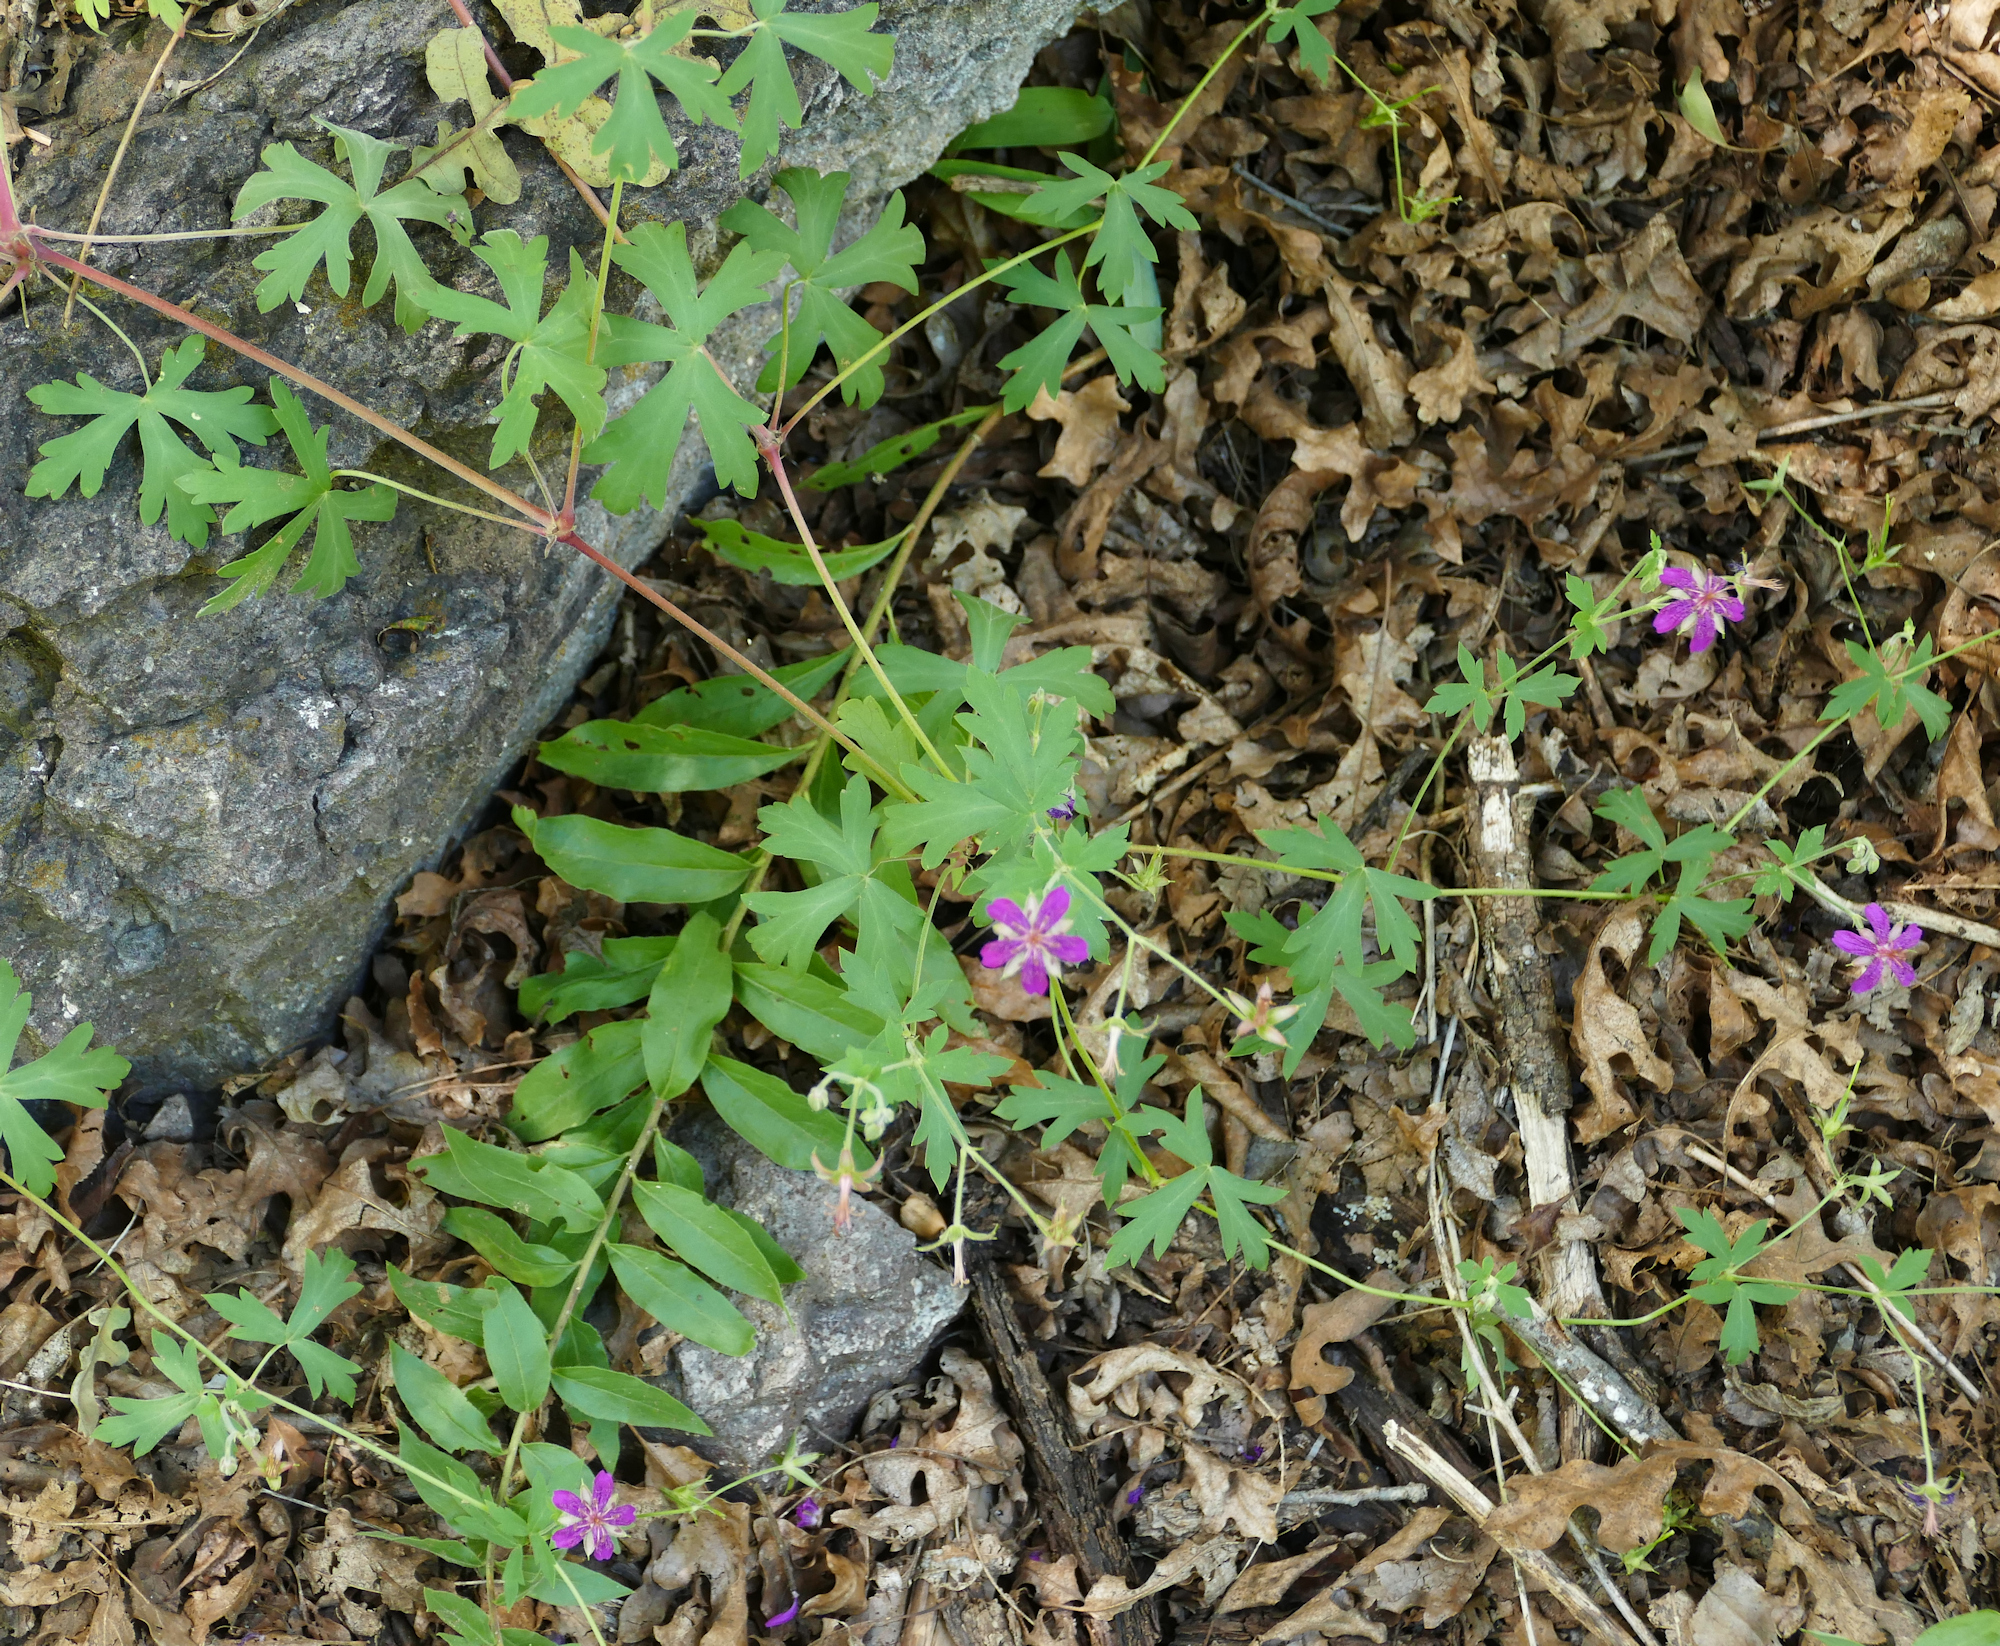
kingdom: Plantae
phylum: Tracheophyta
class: Magnoliopsida
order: Geraniales
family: Geraniaceae
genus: Geranium
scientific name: Geranium caespitosum
